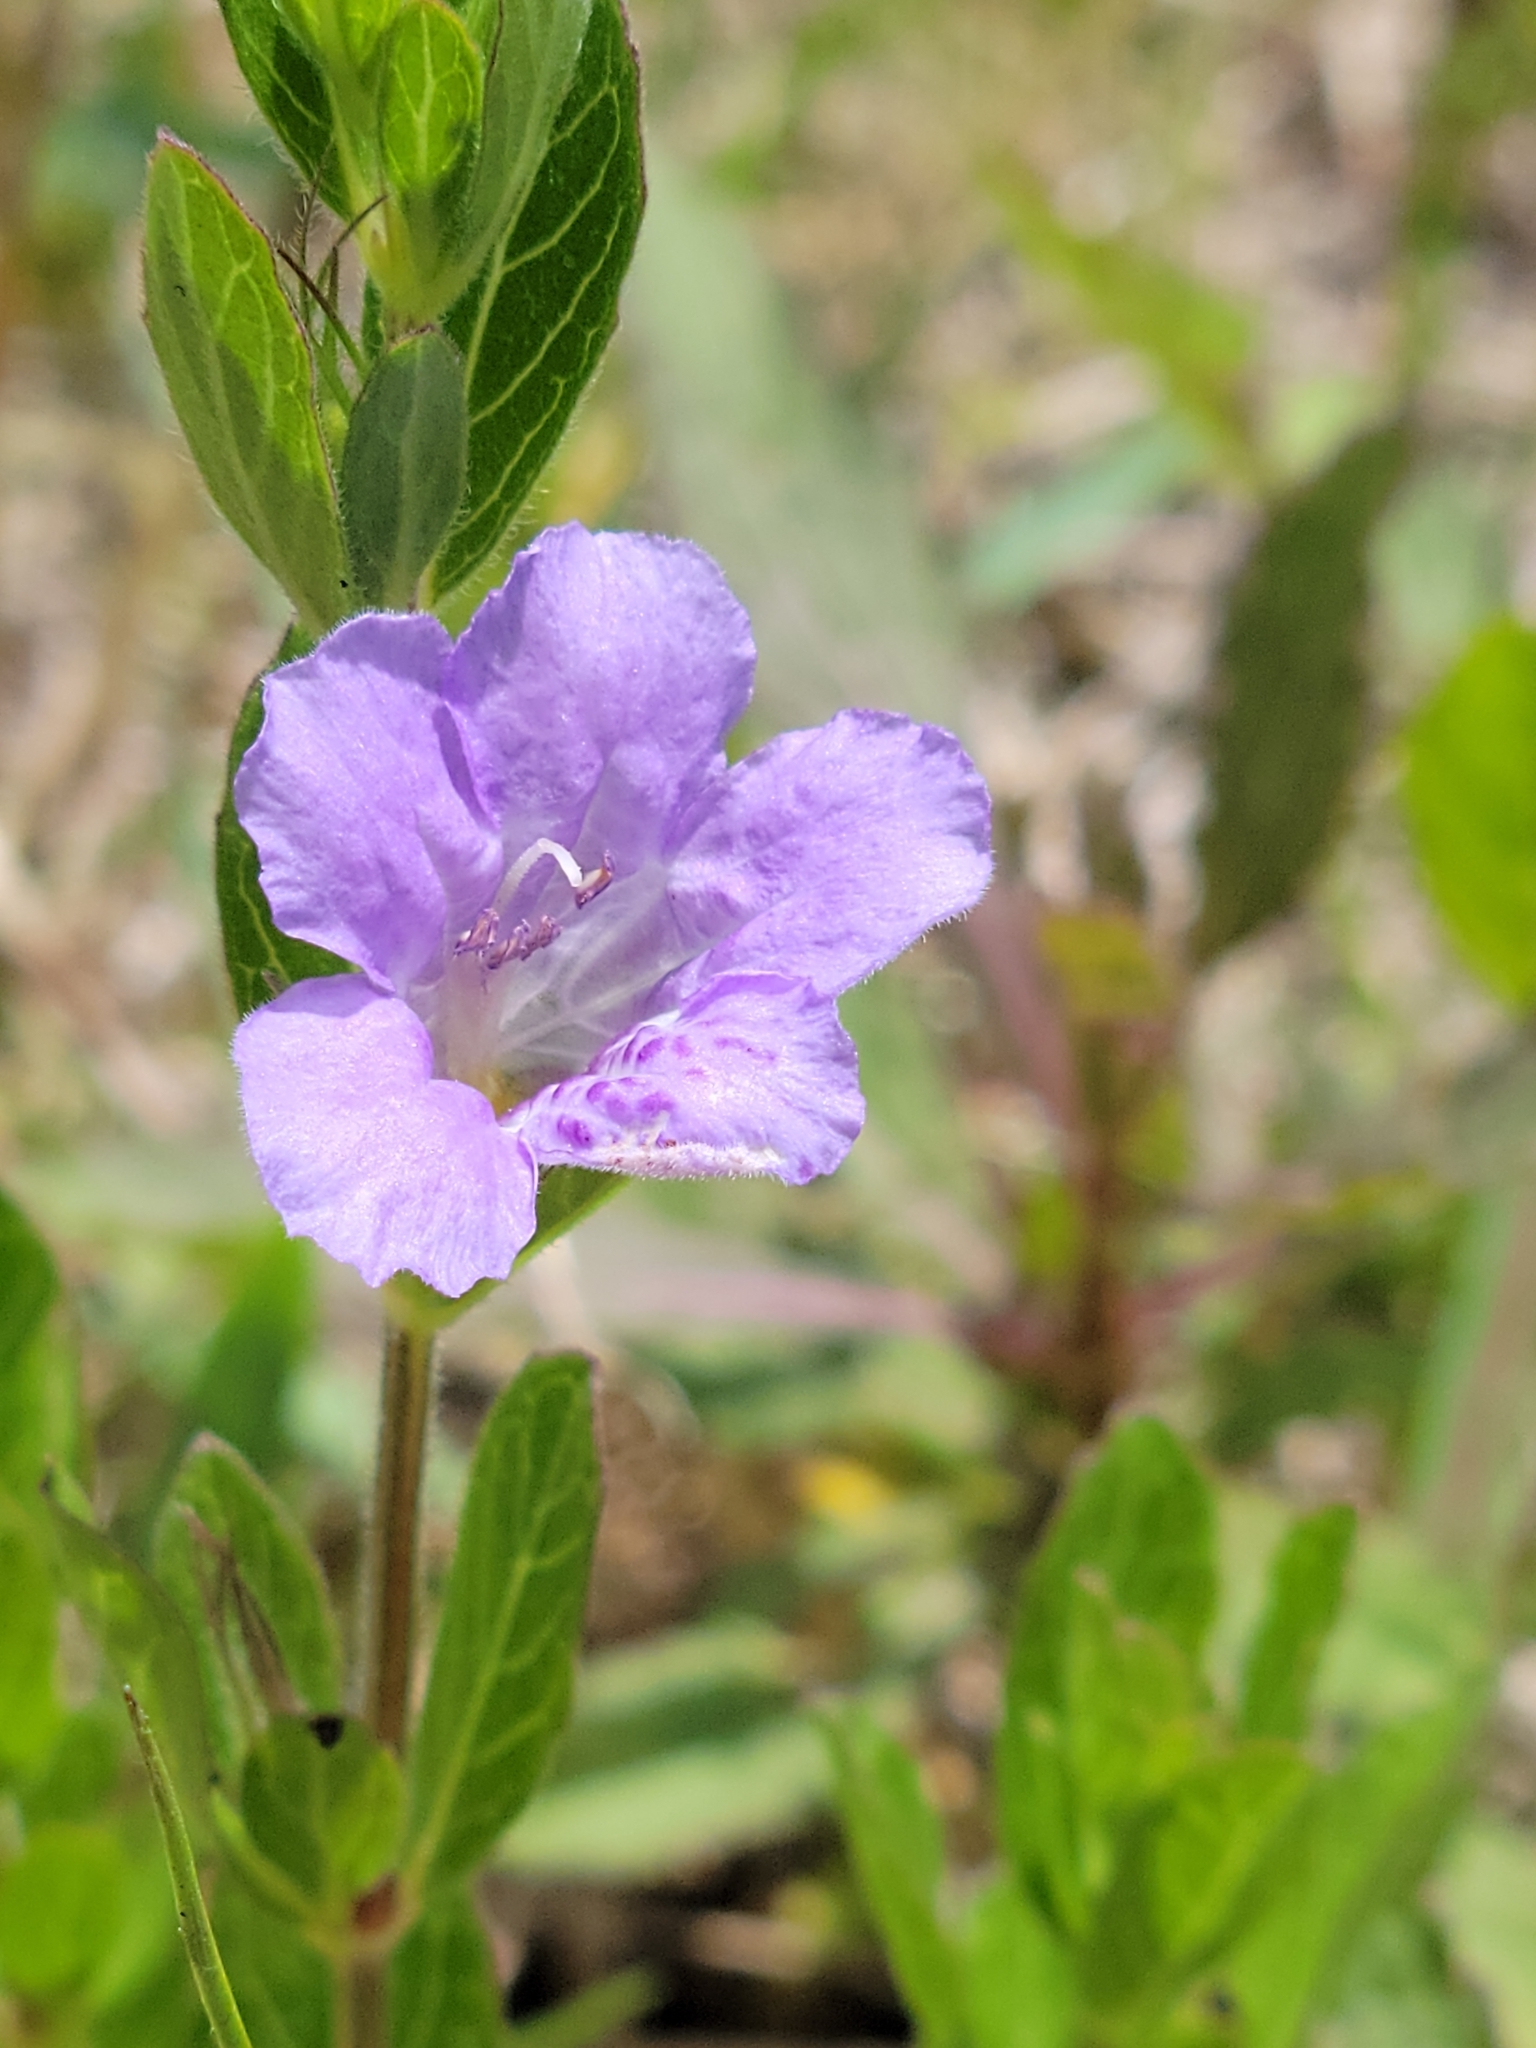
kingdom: Plantae
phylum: Tracheophyta
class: Magnoliopsida
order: Lamiales
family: Acanthaceae
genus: Dyschoriste
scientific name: Dyschoriste oblongifolia
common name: Blue twinflower
